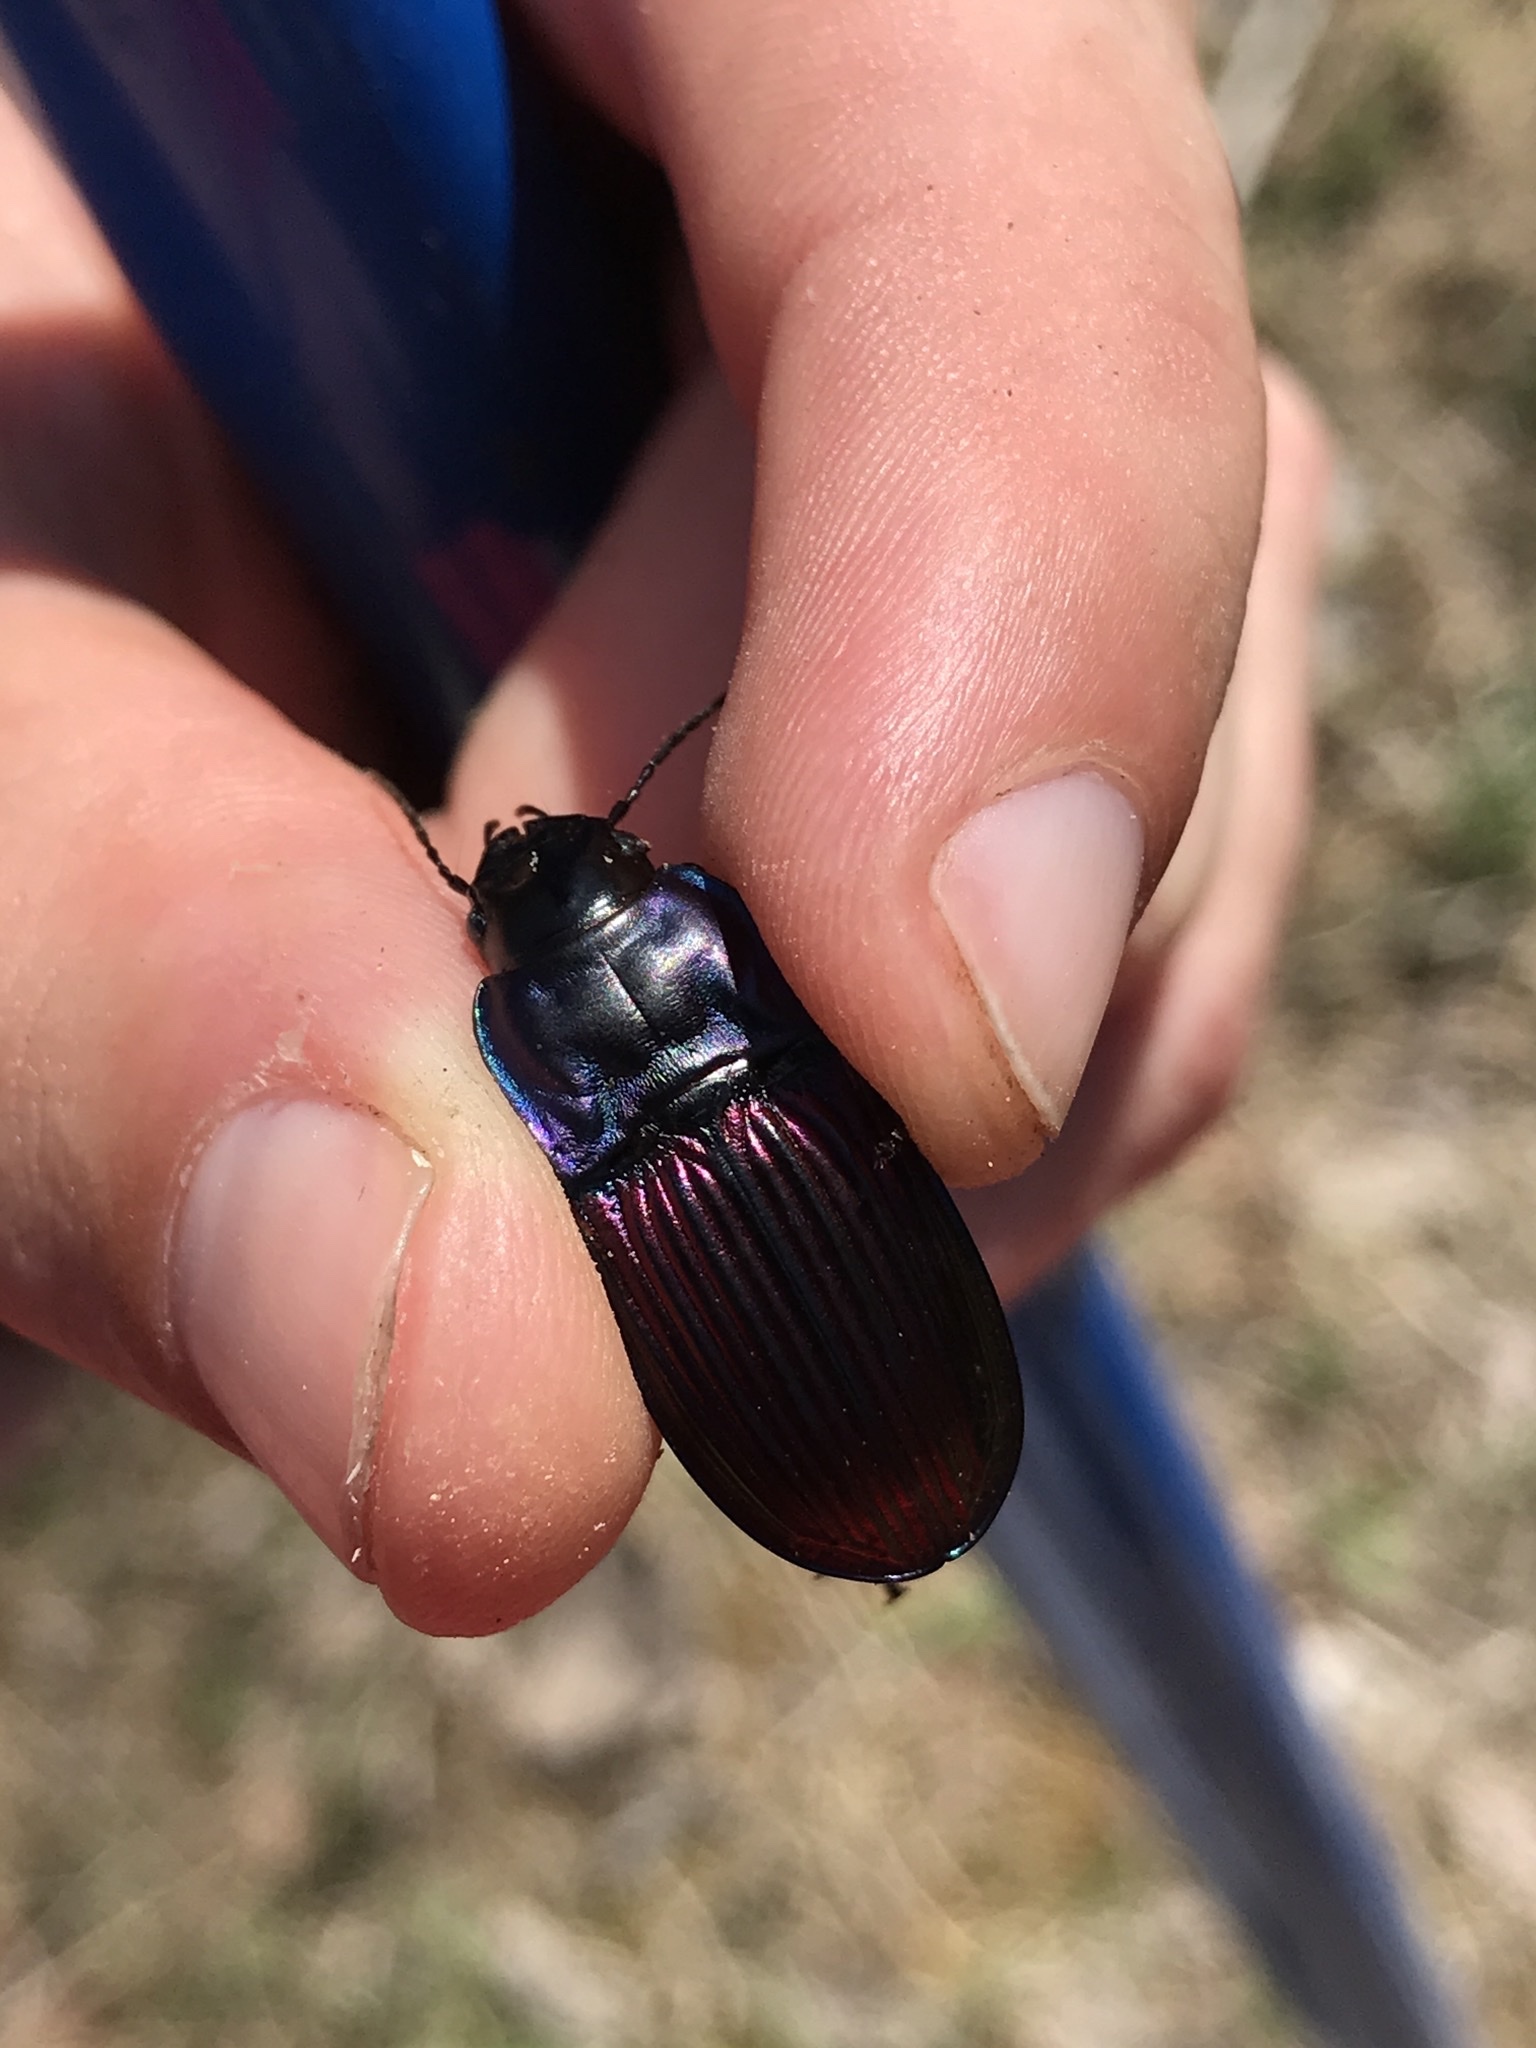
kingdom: Animalia
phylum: Arthropoda
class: Insecta
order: Coleoptera
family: Carabidae
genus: Dicaelus
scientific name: Dicaelus purpuratus
